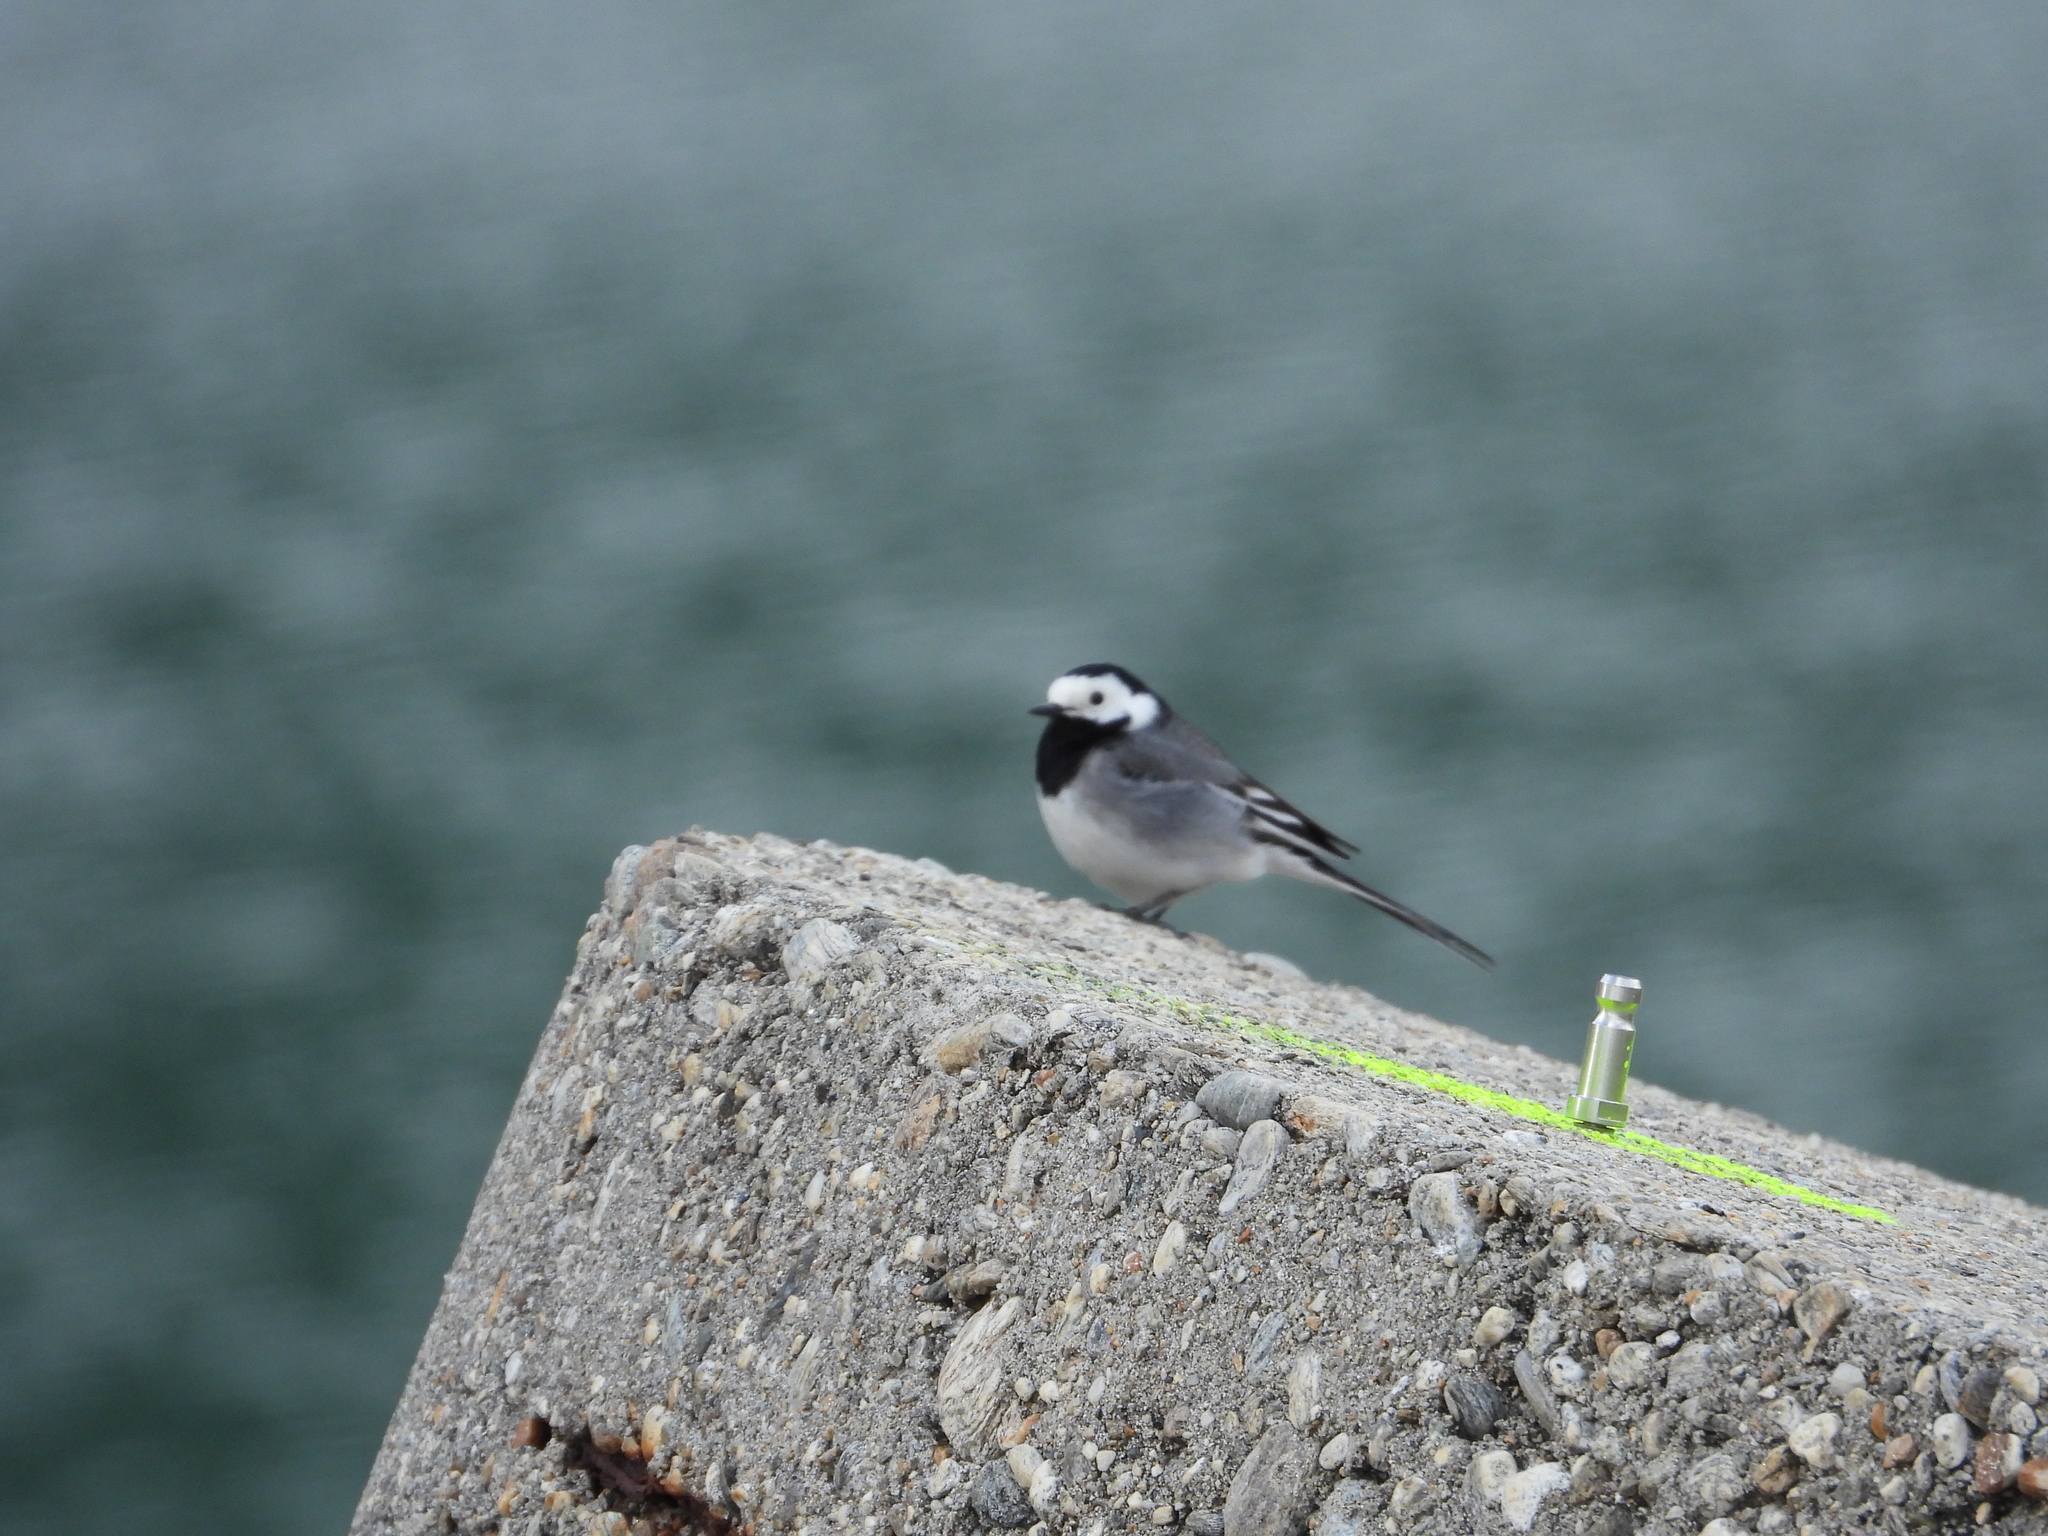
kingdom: Animalia
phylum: Chordata
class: Aves
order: Passeriformes
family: Motacillidae
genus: Motacilla
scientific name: Motacilla alba
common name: White wagtail
